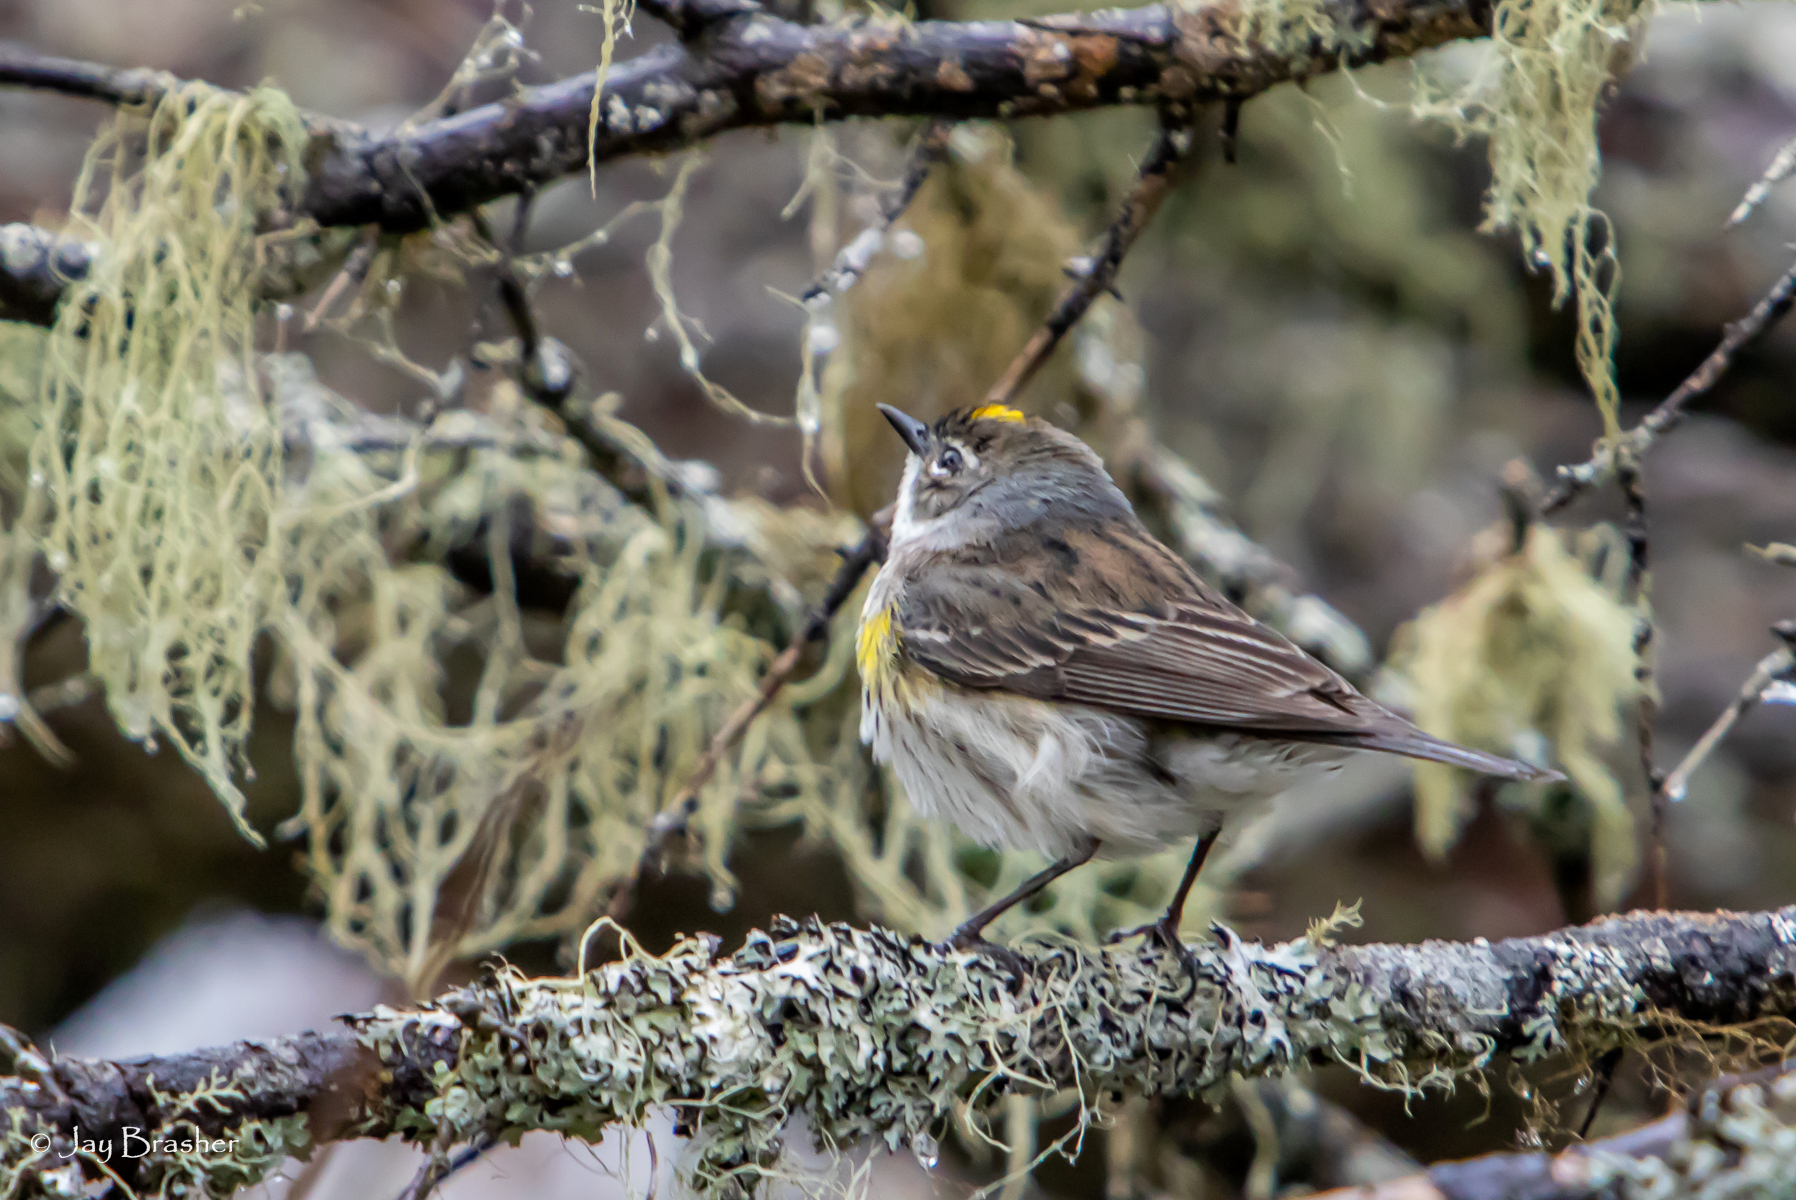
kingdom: Animalia
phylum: Chordata
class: Aves
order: Passeriformes
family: Parulidae
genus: Setophaga
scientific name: Setophaga coronata
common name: Myrtle warbler
